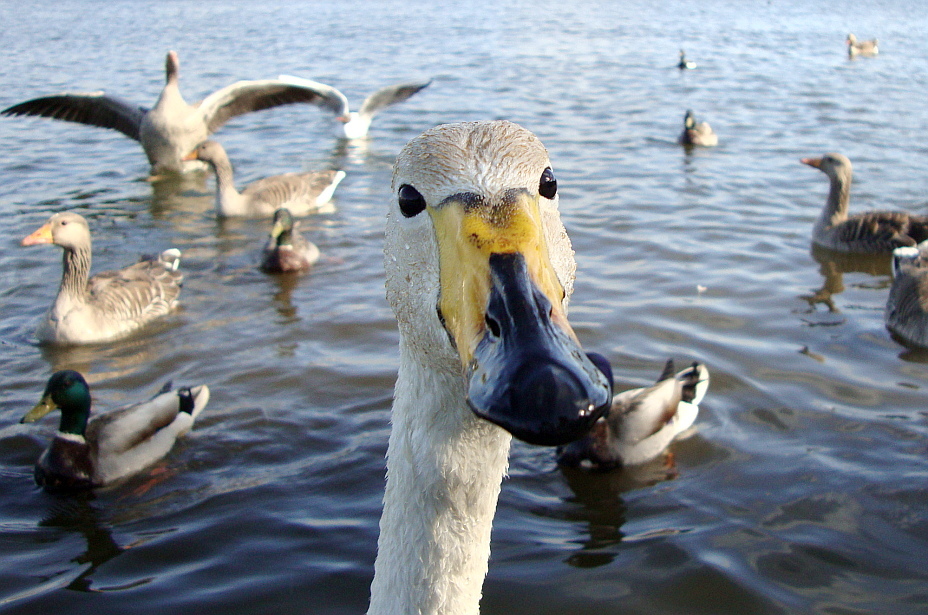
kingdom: Animalia
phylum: Chordata
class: Aves
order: Anseriformes
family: Anatidae
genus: Cygnus
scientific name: Cygnus cygnus
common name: Whooper swan
